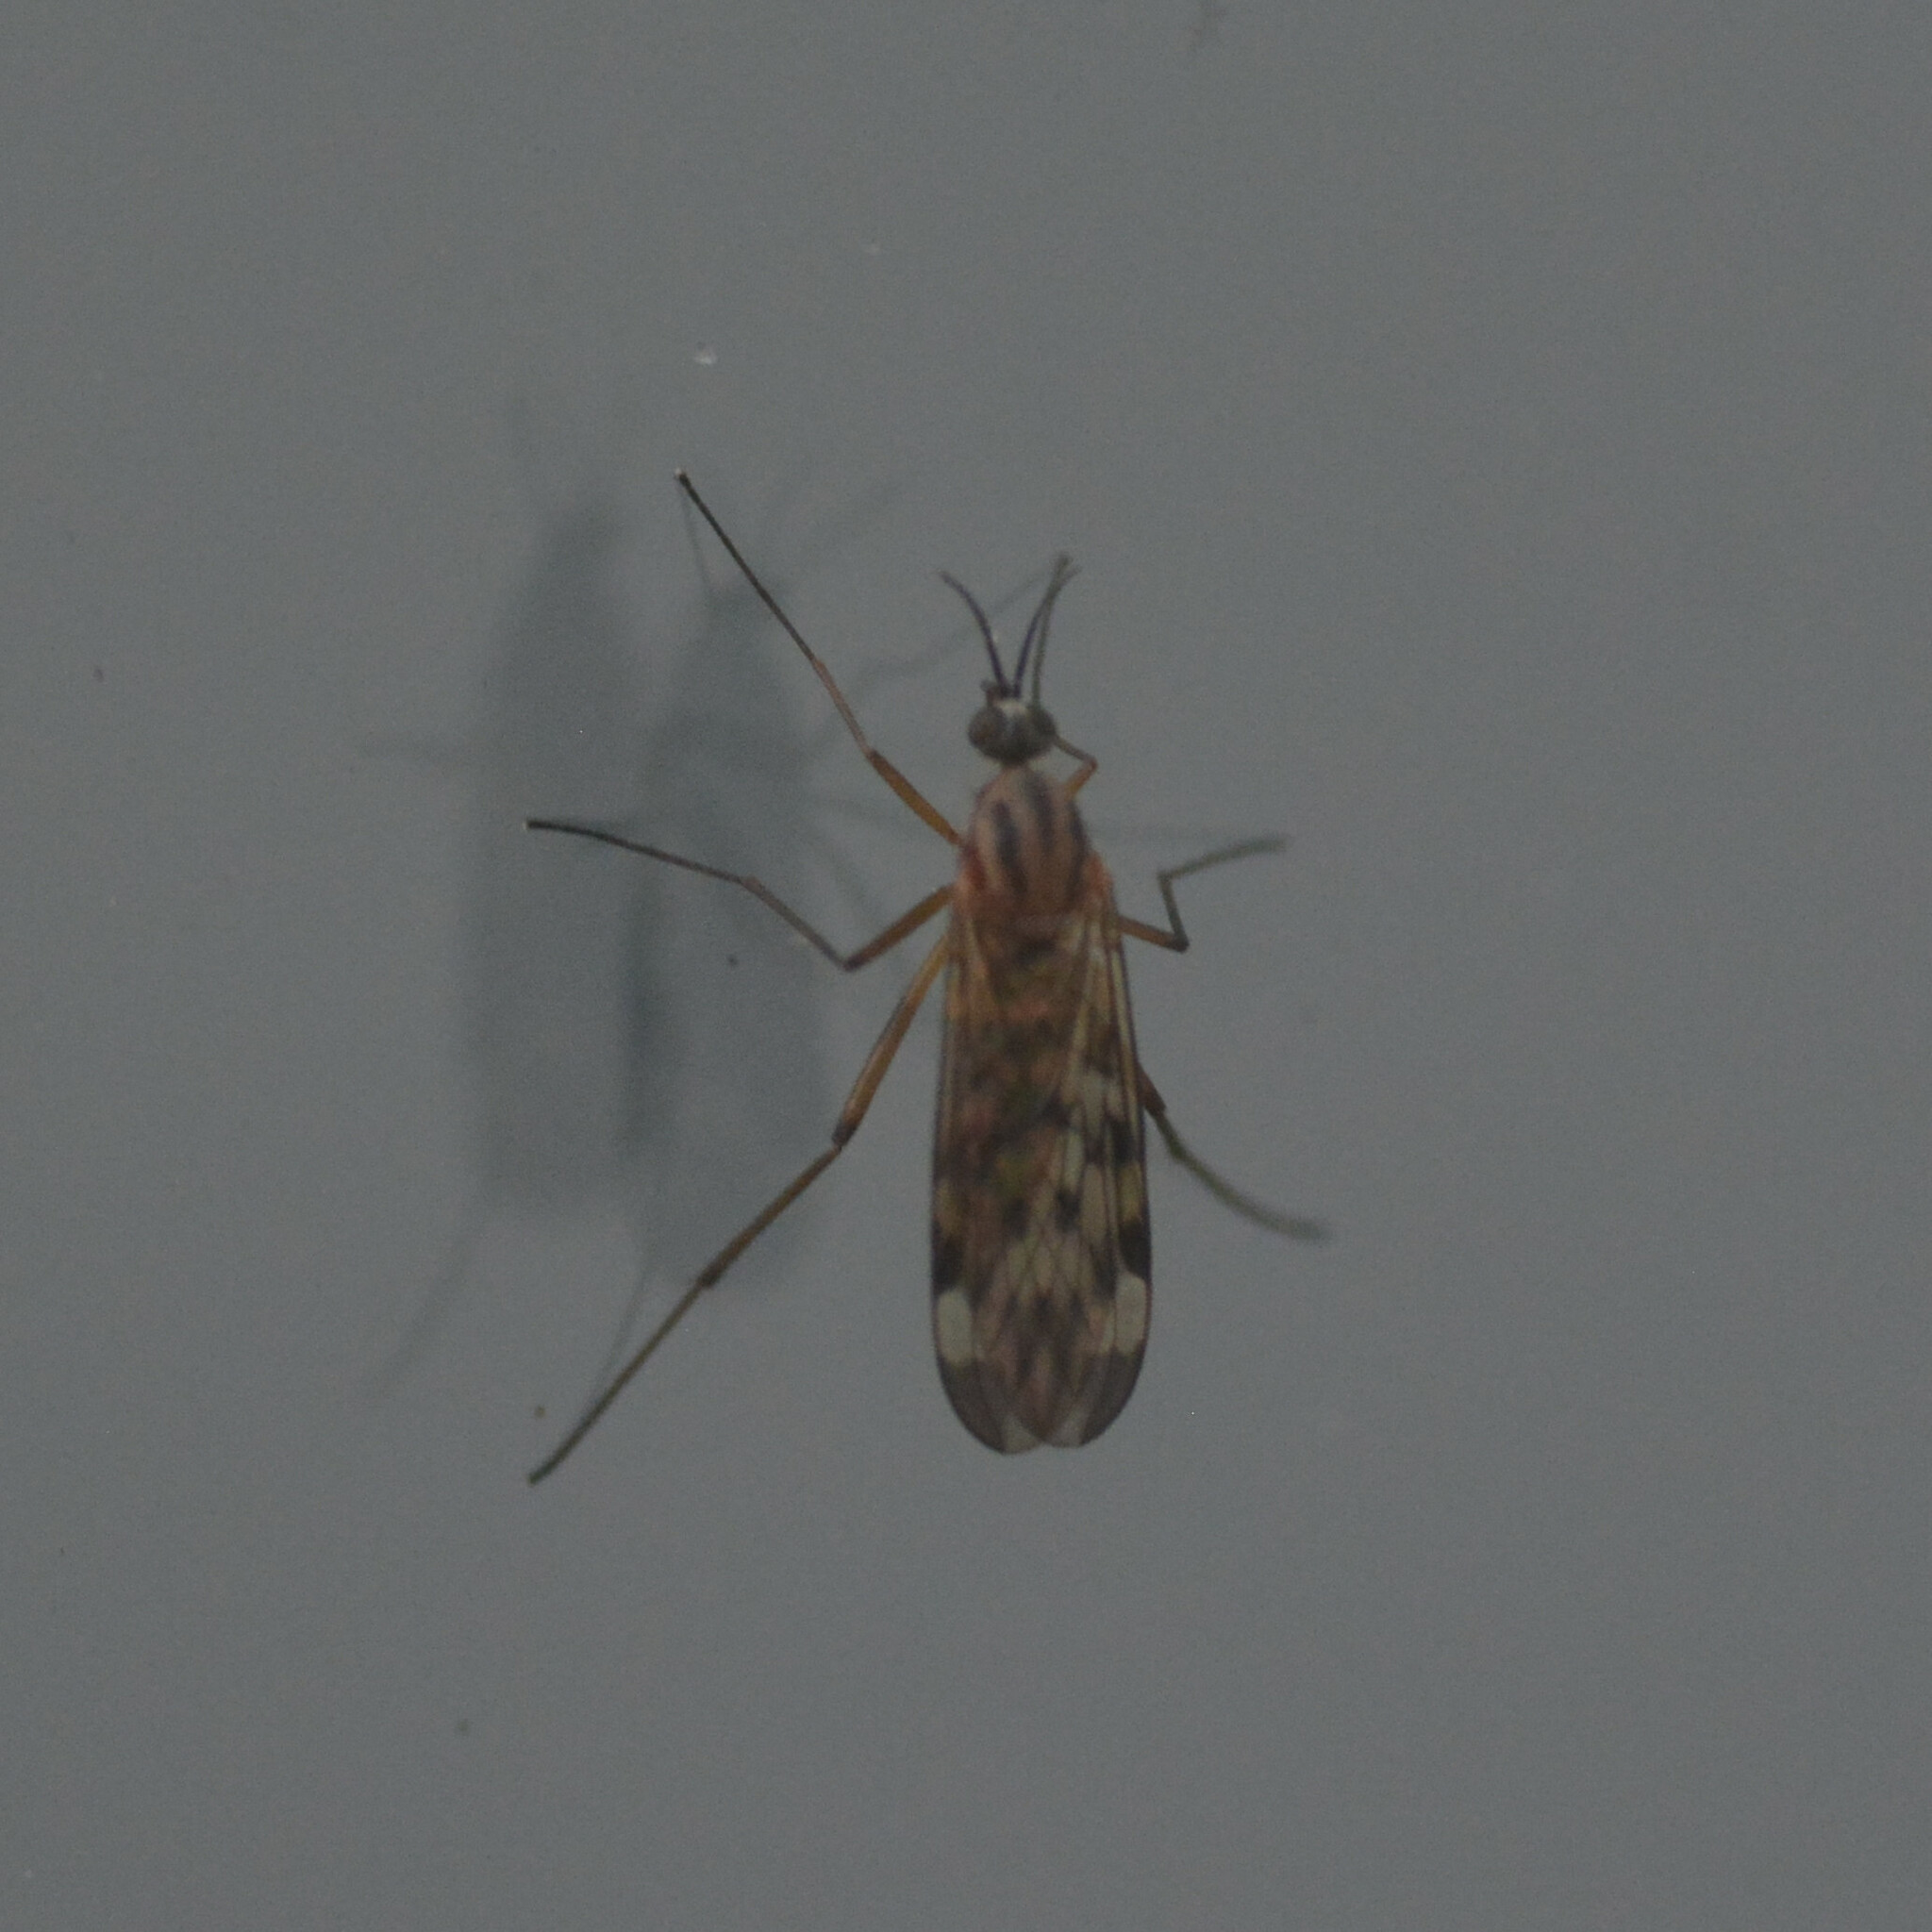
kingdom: Animalia
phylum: Arthropoda
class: Insecta
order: Diptera
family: Anisopodidae
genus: Sylvicola
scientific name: Sylvicola
